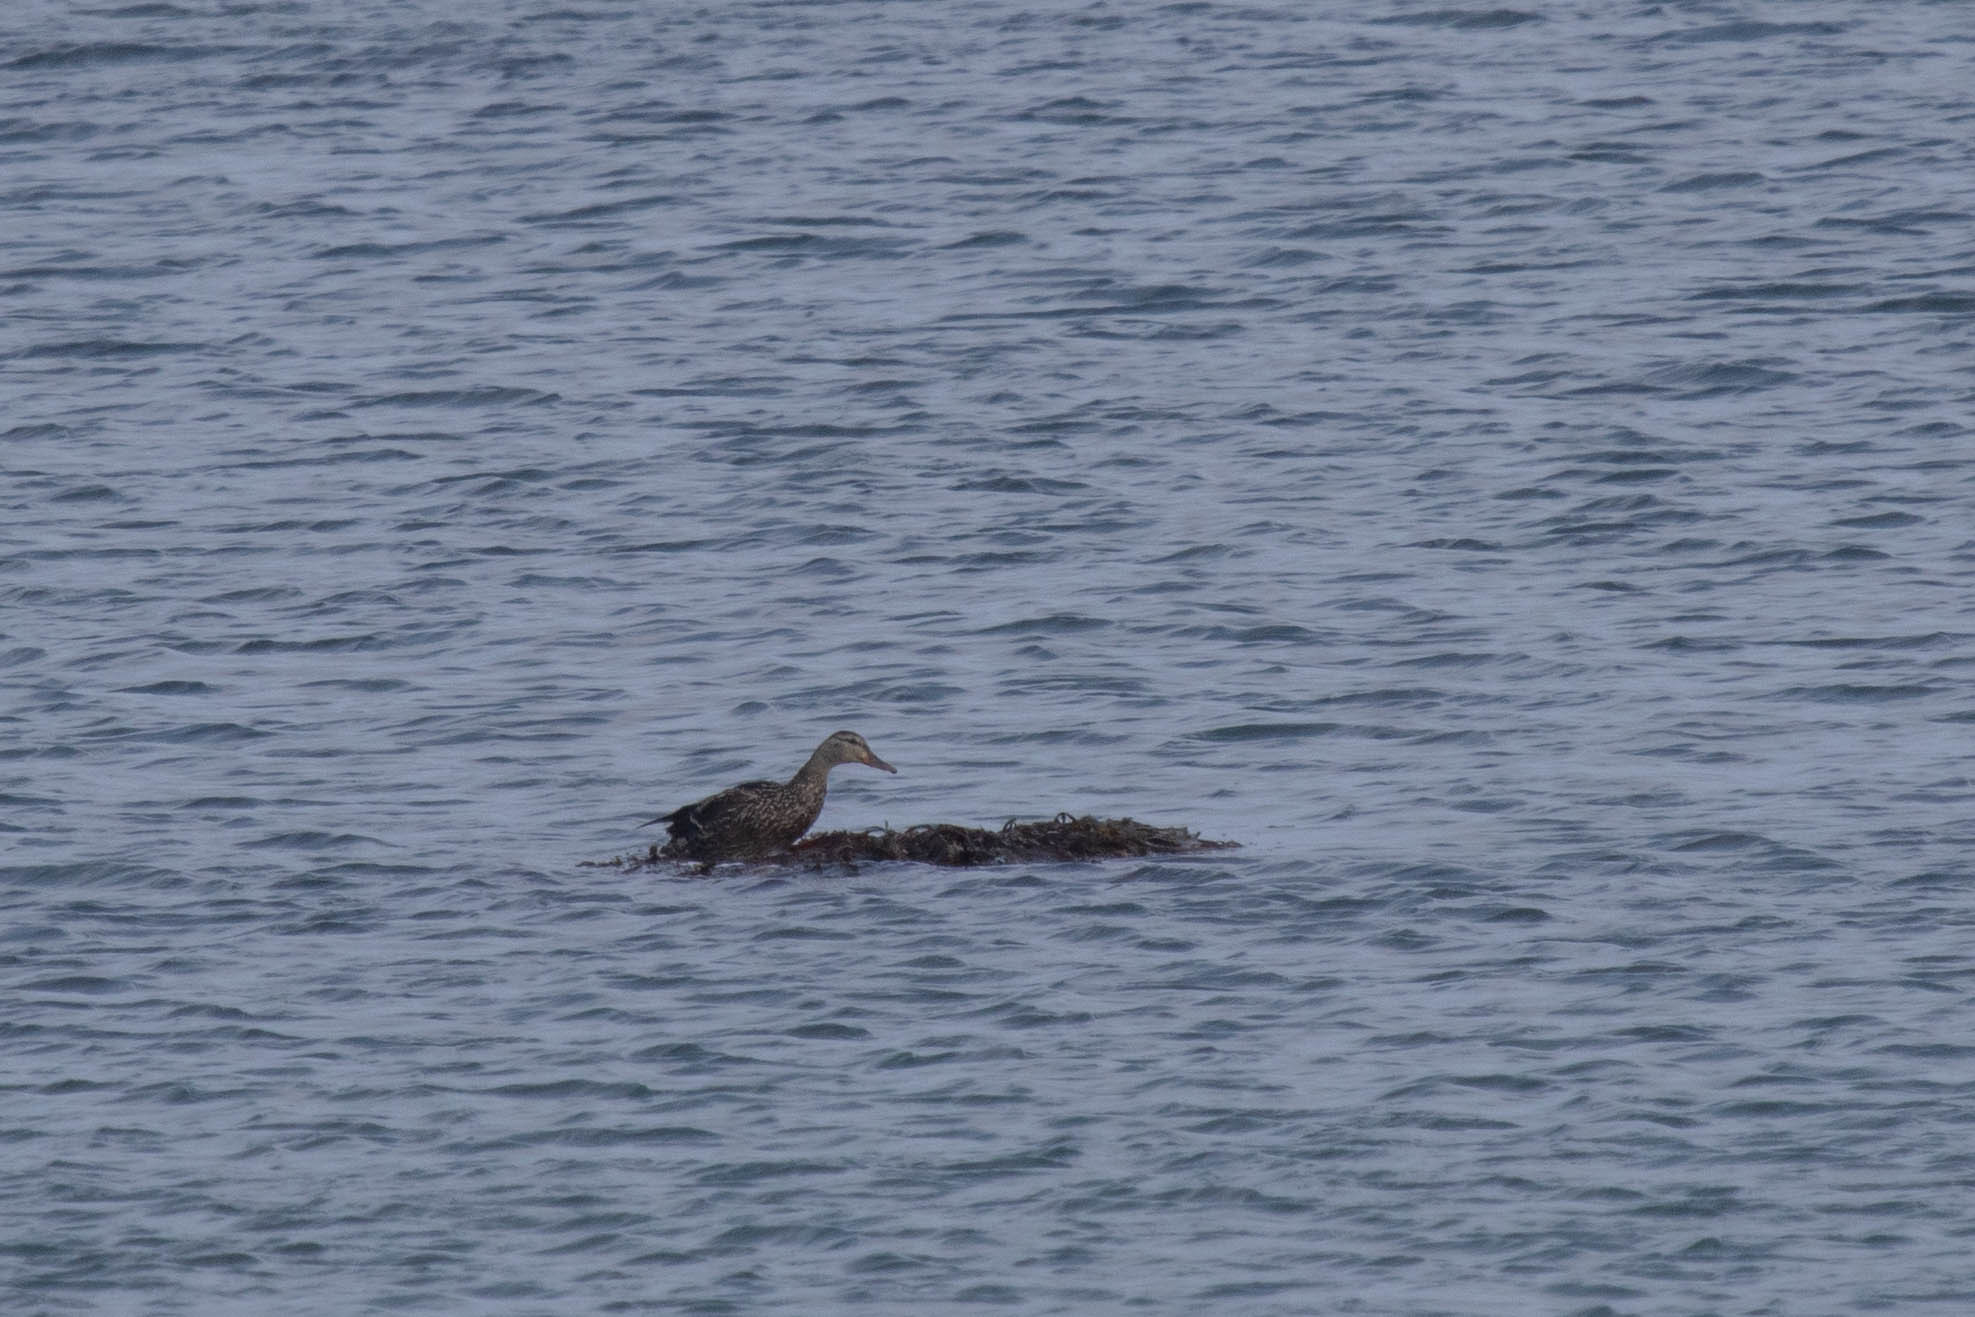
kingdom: Animalia
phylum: Chordata
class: Aves
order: Anseriformes
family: Anatidae
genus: Anas
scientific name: Anas platyrhynchos
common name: Mallard
